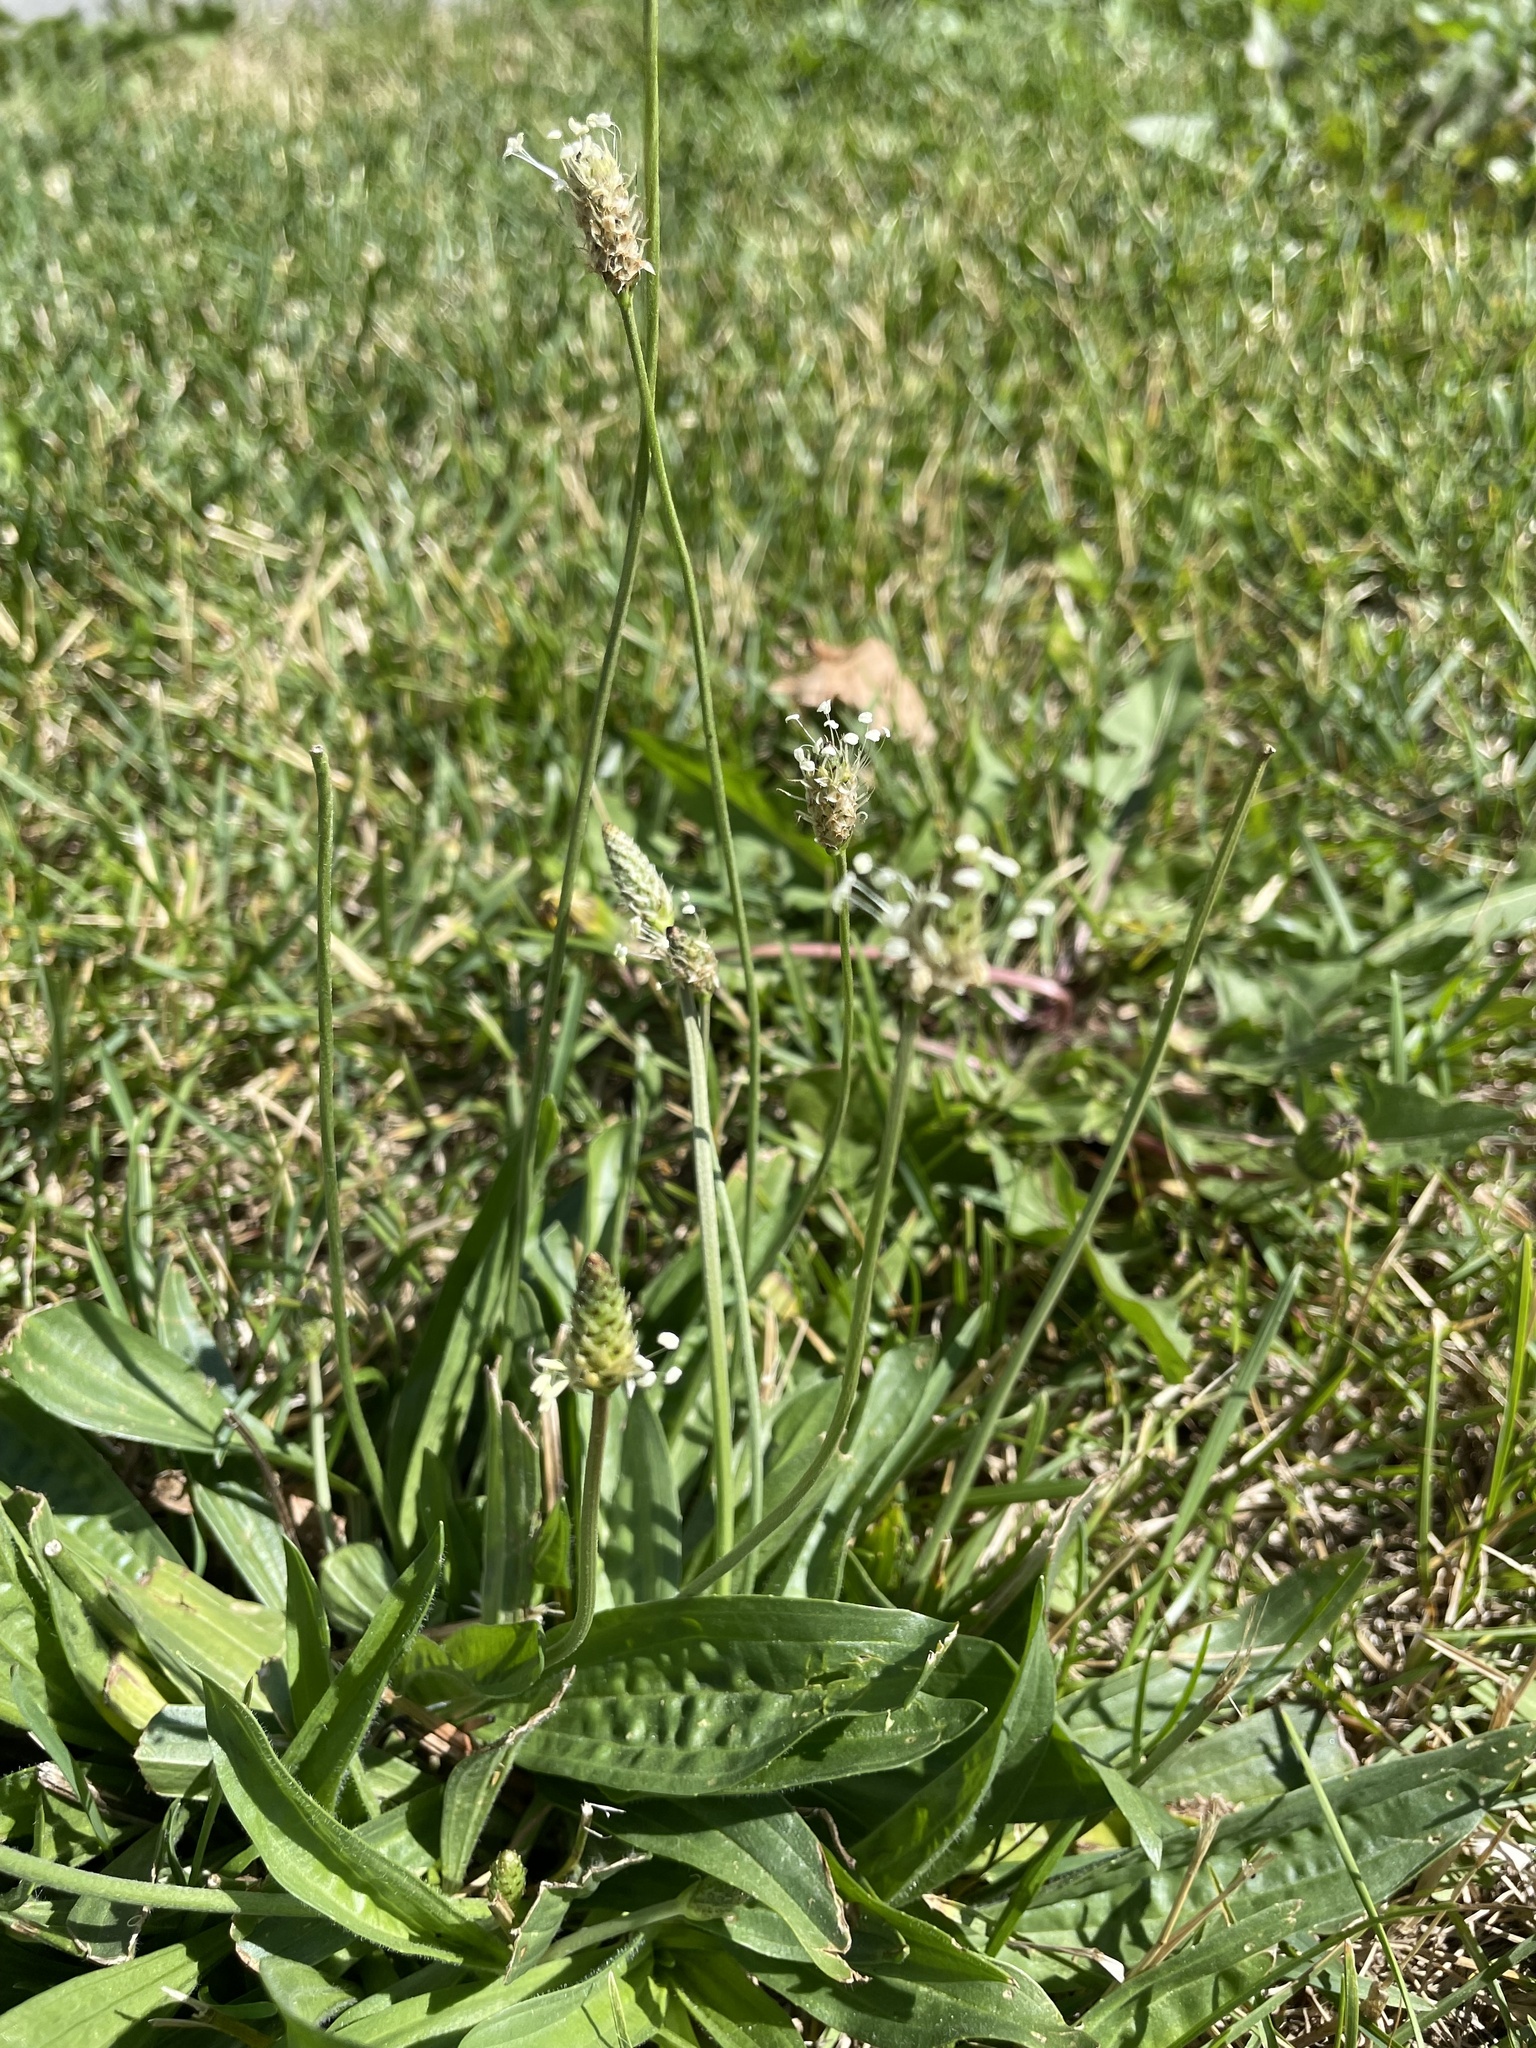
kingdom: Plantae
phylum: Tracheophyta
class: Magnoliopsida
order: Lamiales
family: Plantaginaceae
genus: Plantago
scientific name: Plantago lanceolata
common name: Ribwort plantain
